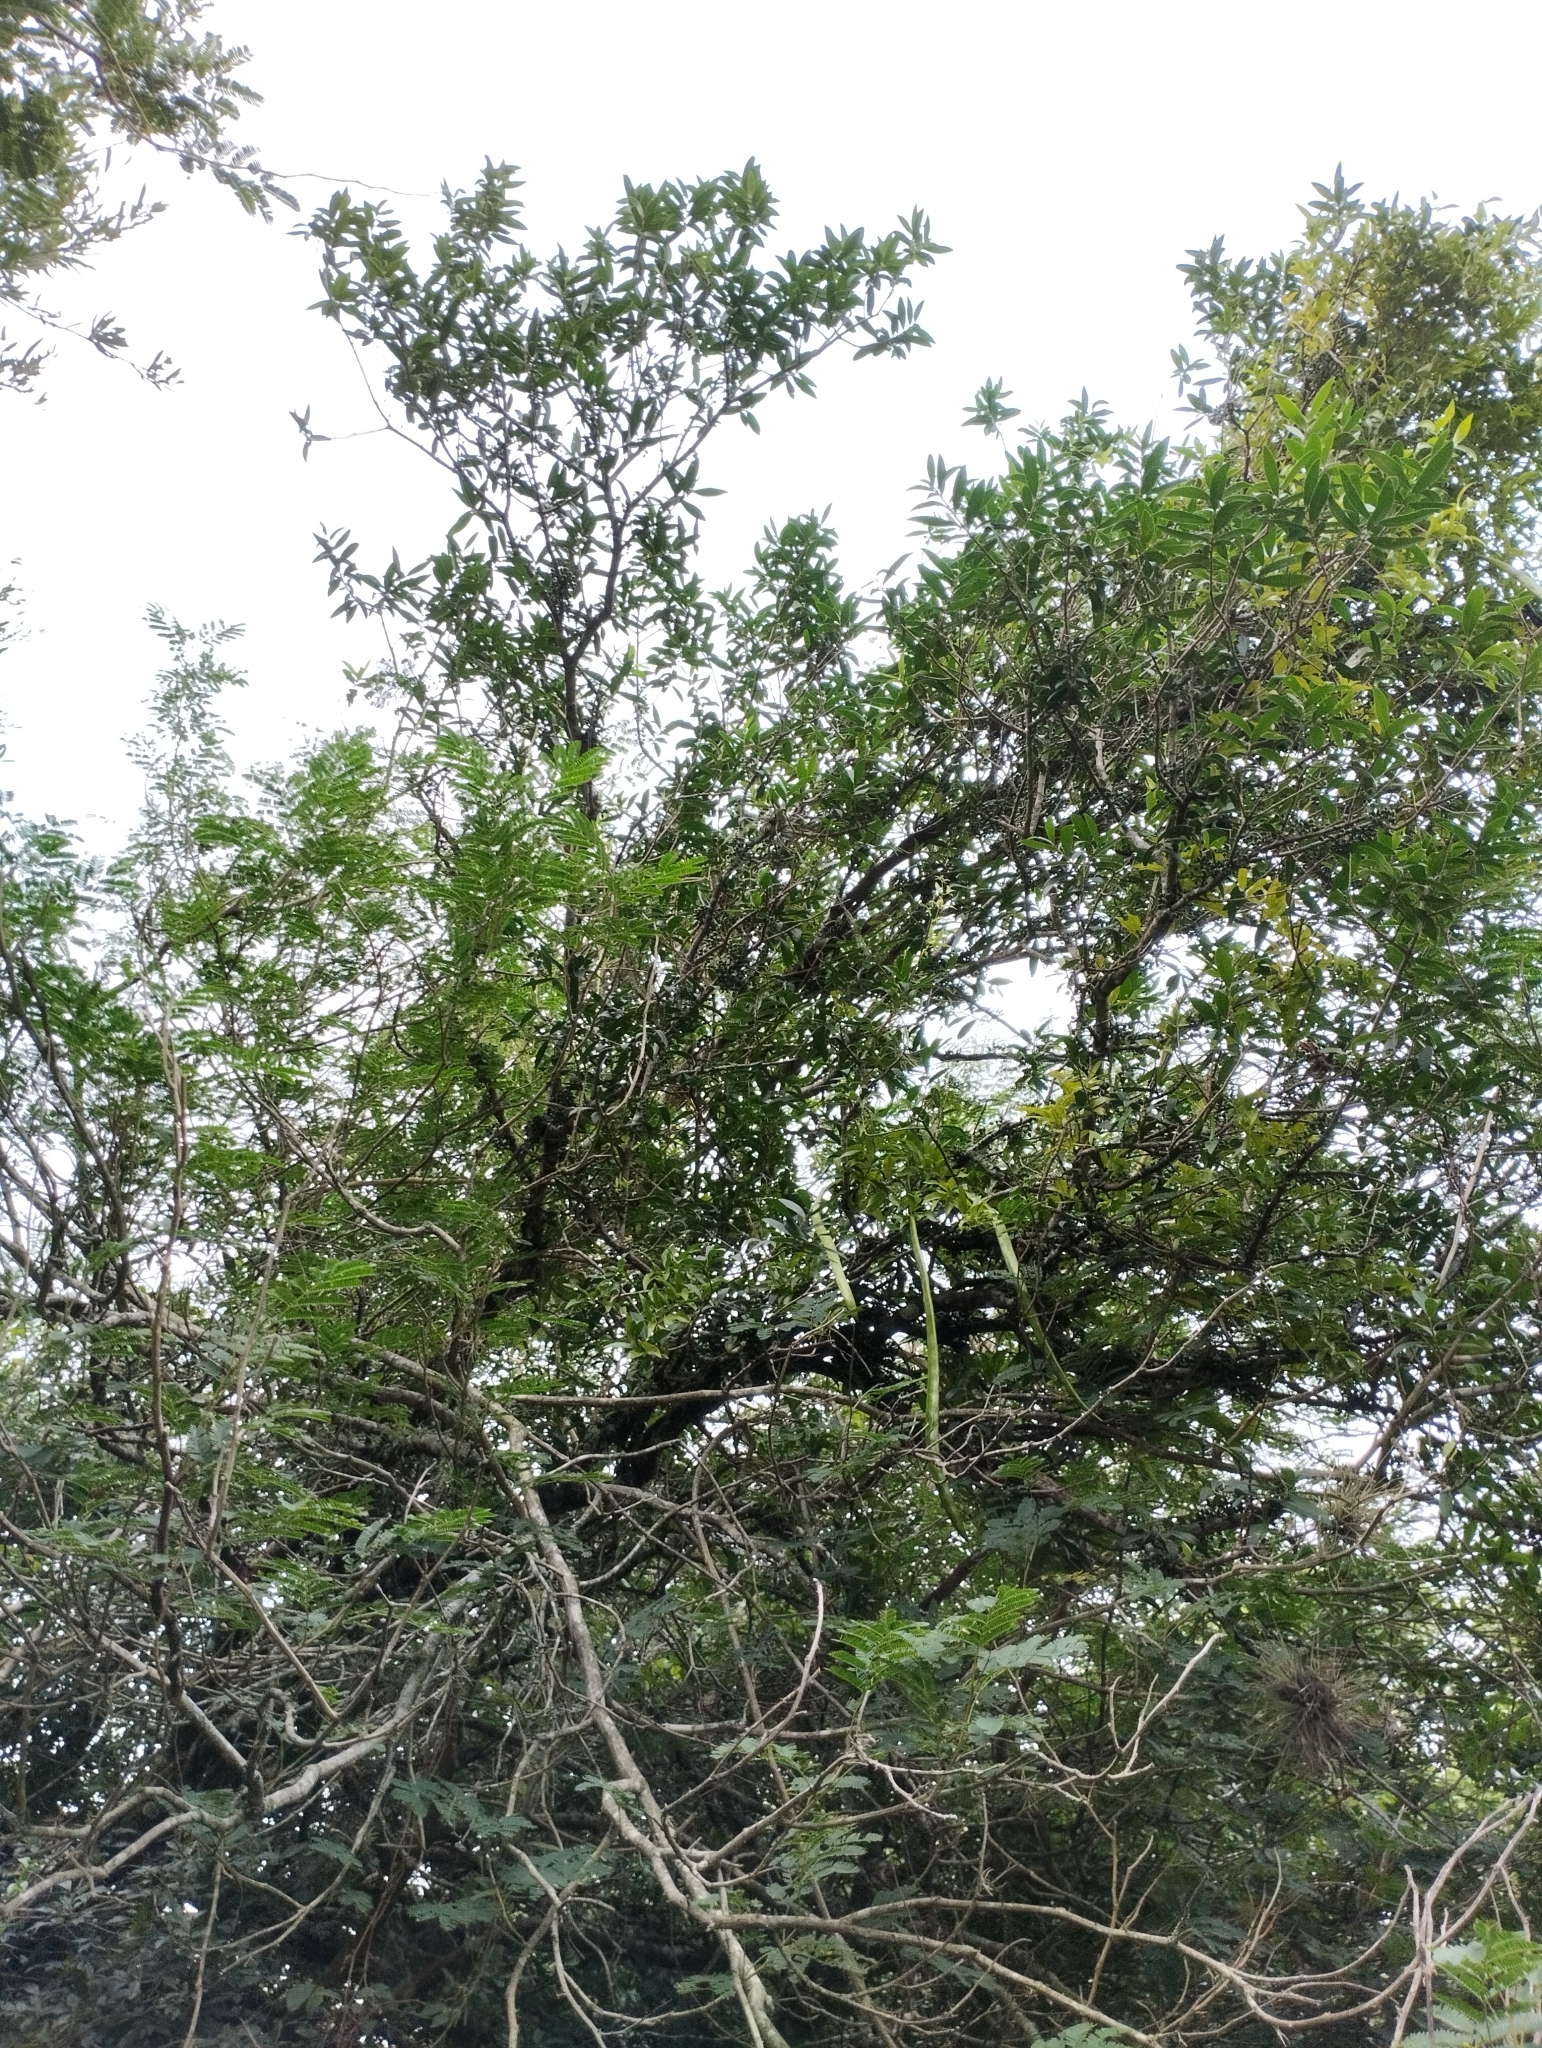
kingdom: Plantae
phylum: Tracheophyta
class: Magnoliopsida
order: Lamiales
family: Bignoniaceae
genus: Dolichandra
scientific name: Dolichandra unguis-cati
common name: Catclaw vine
